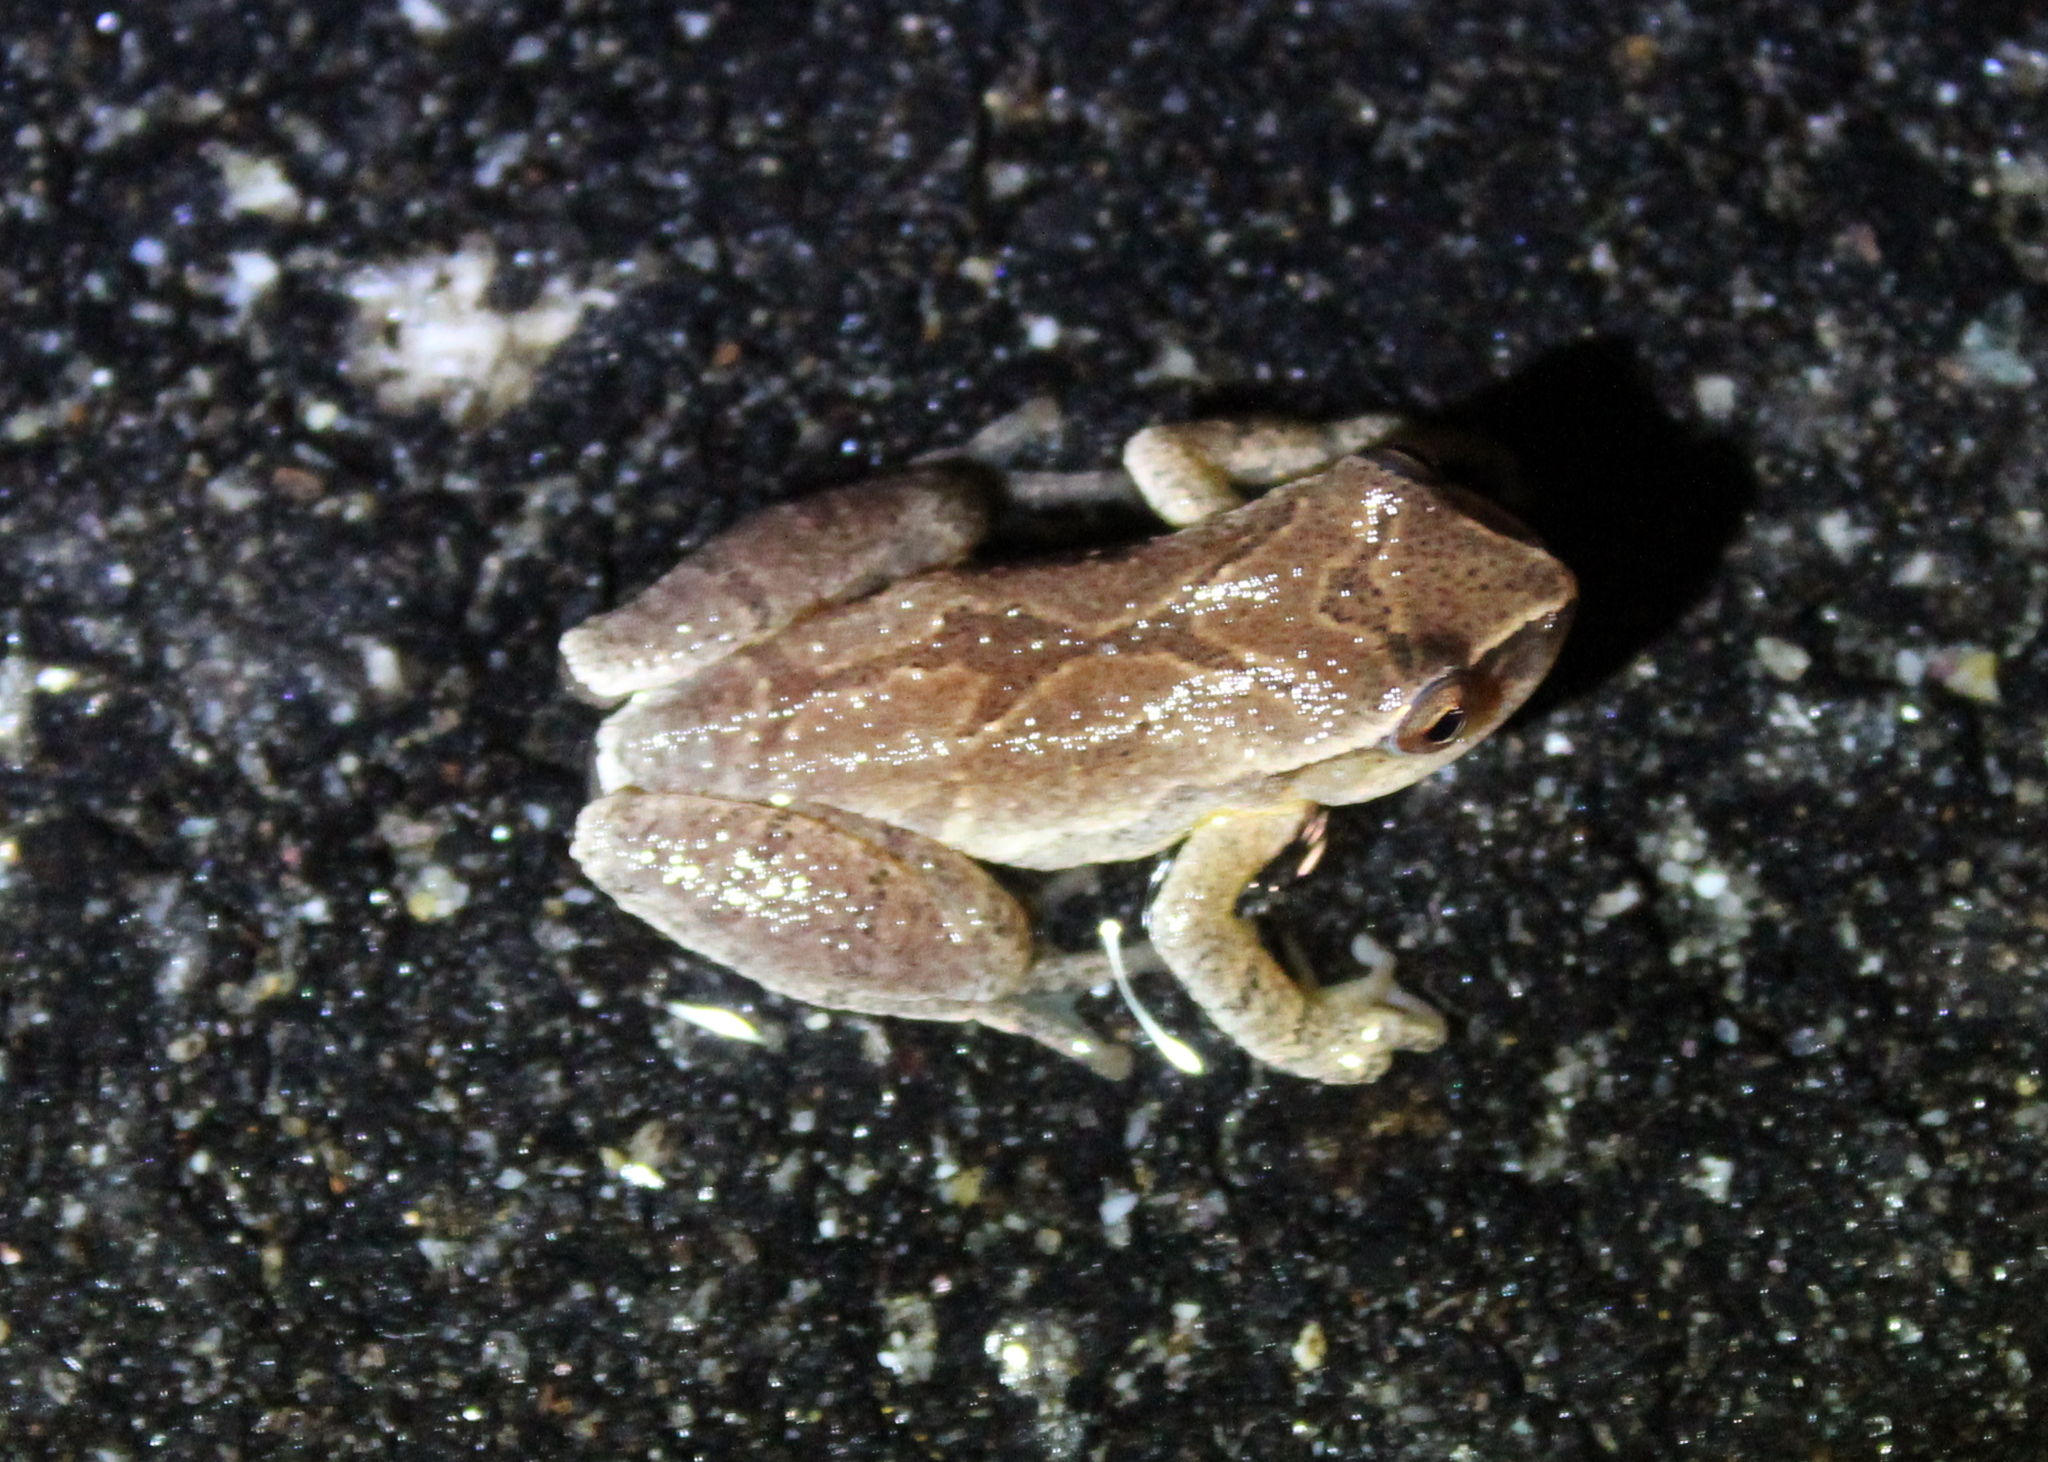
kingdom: Animalia
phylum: Chordata
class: Amphibia
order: Anura
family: Hylidae
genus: Pseudacris
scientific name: Pseudacris crucifer
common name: Spring peeper
